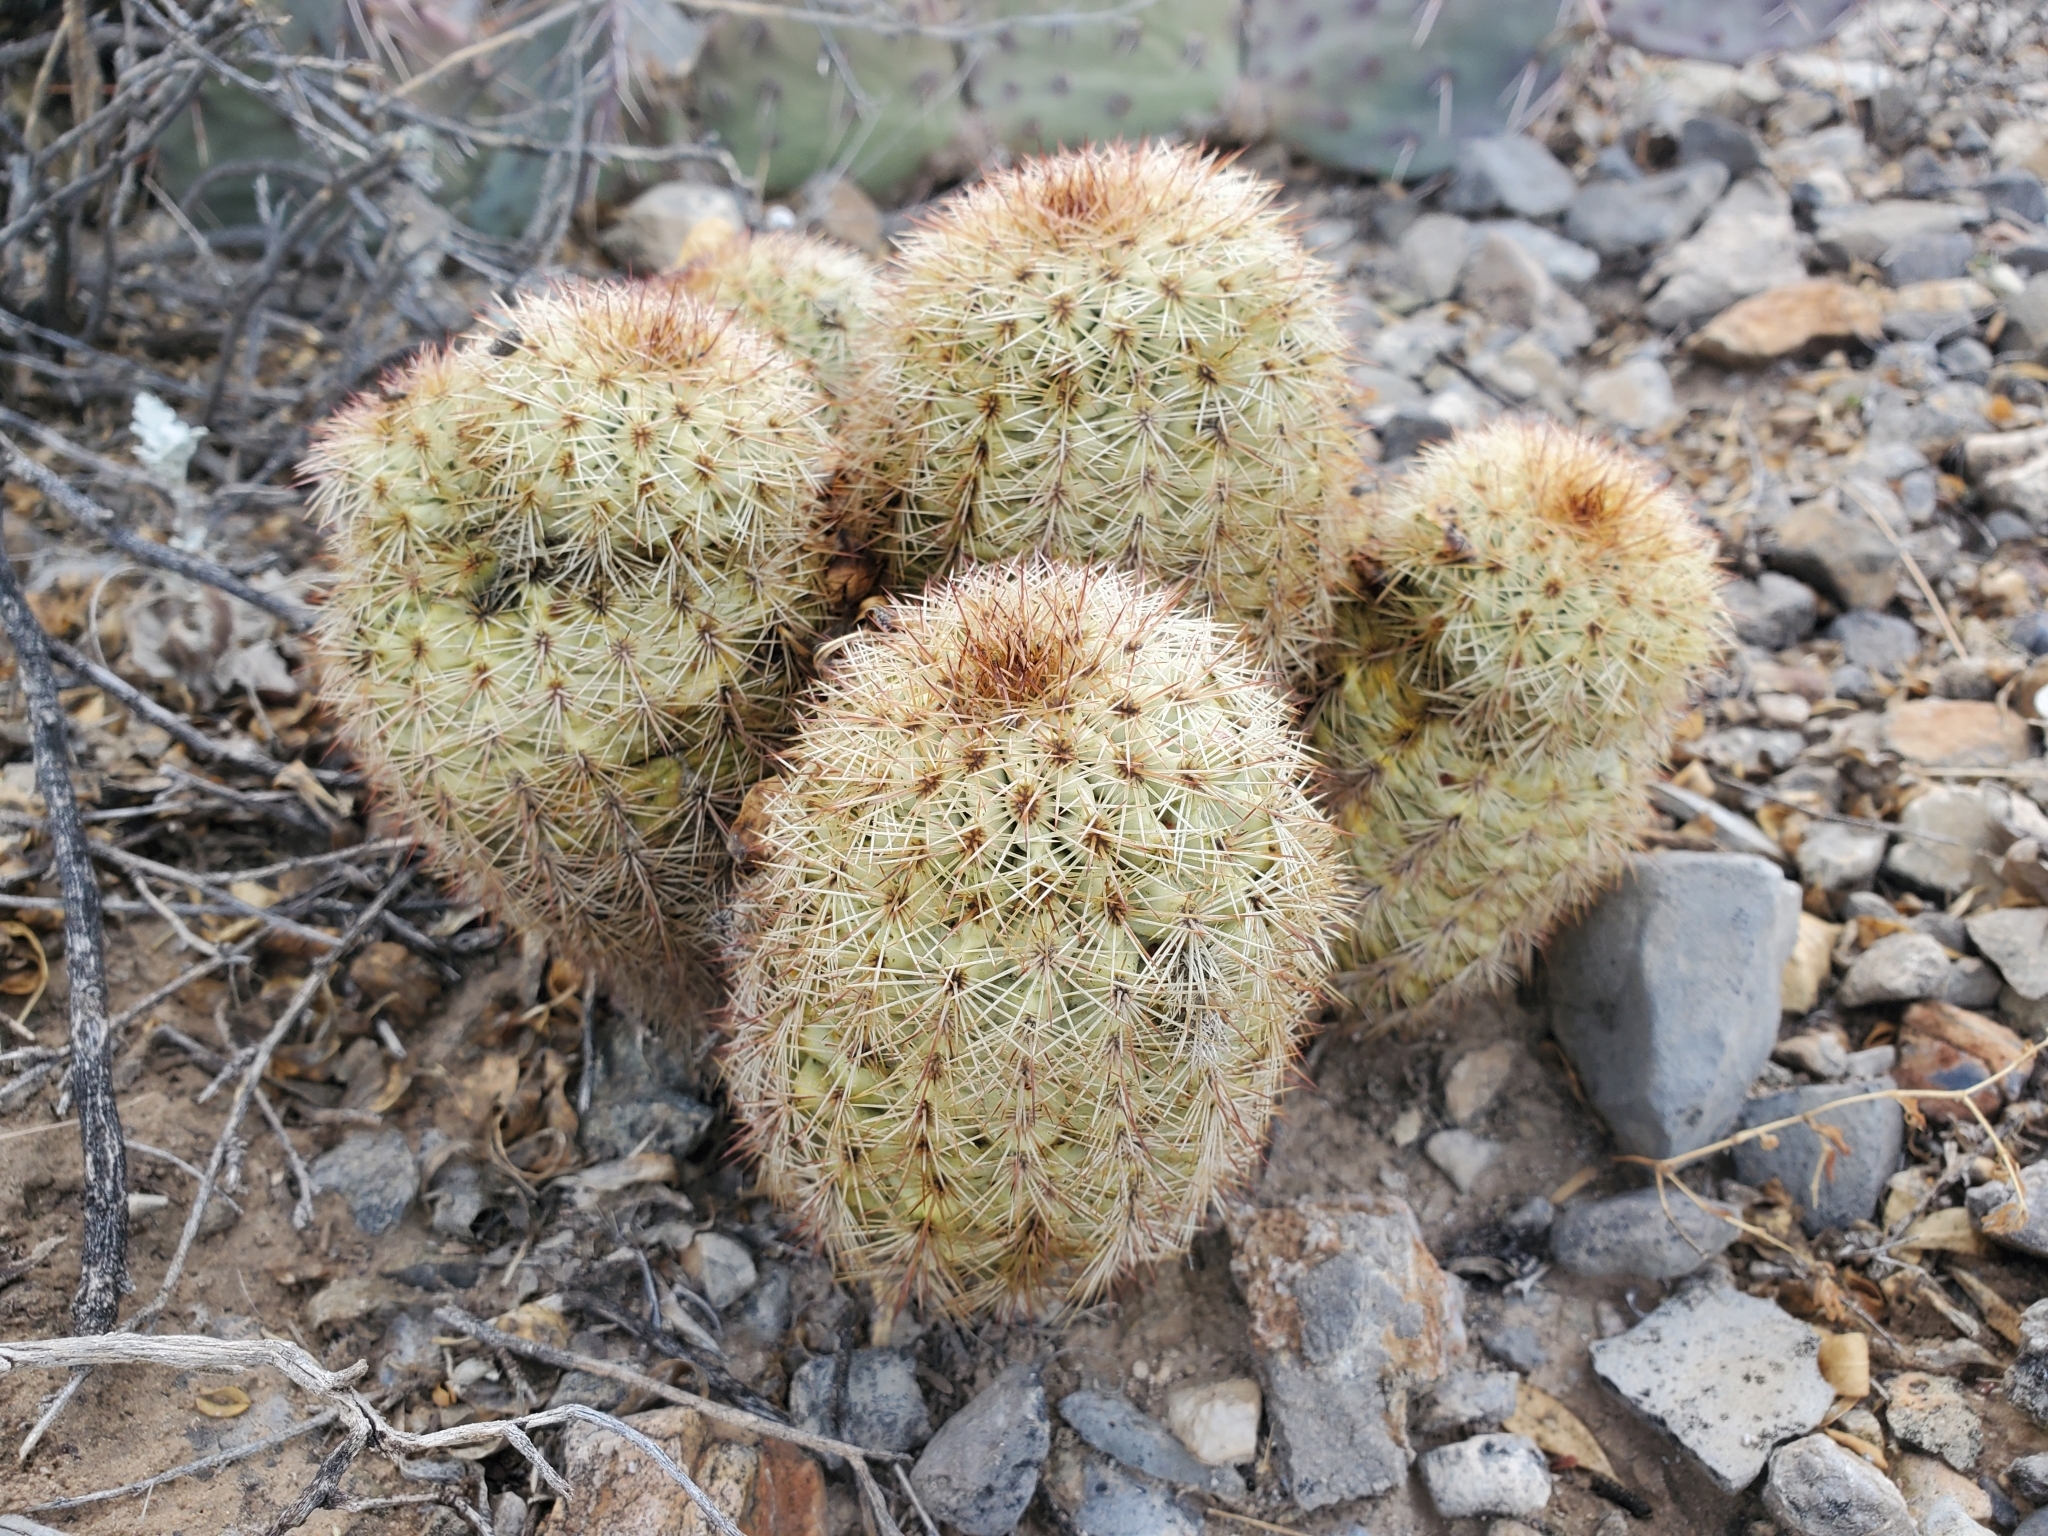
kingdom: Plantae
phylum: Tracheophyta
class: Magnoliopsida
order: Caryophyllales
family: Cactaceae
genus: Echinocereus
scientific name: Echinocereus dasyacanthus
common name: Spiny hedgehog cactus
